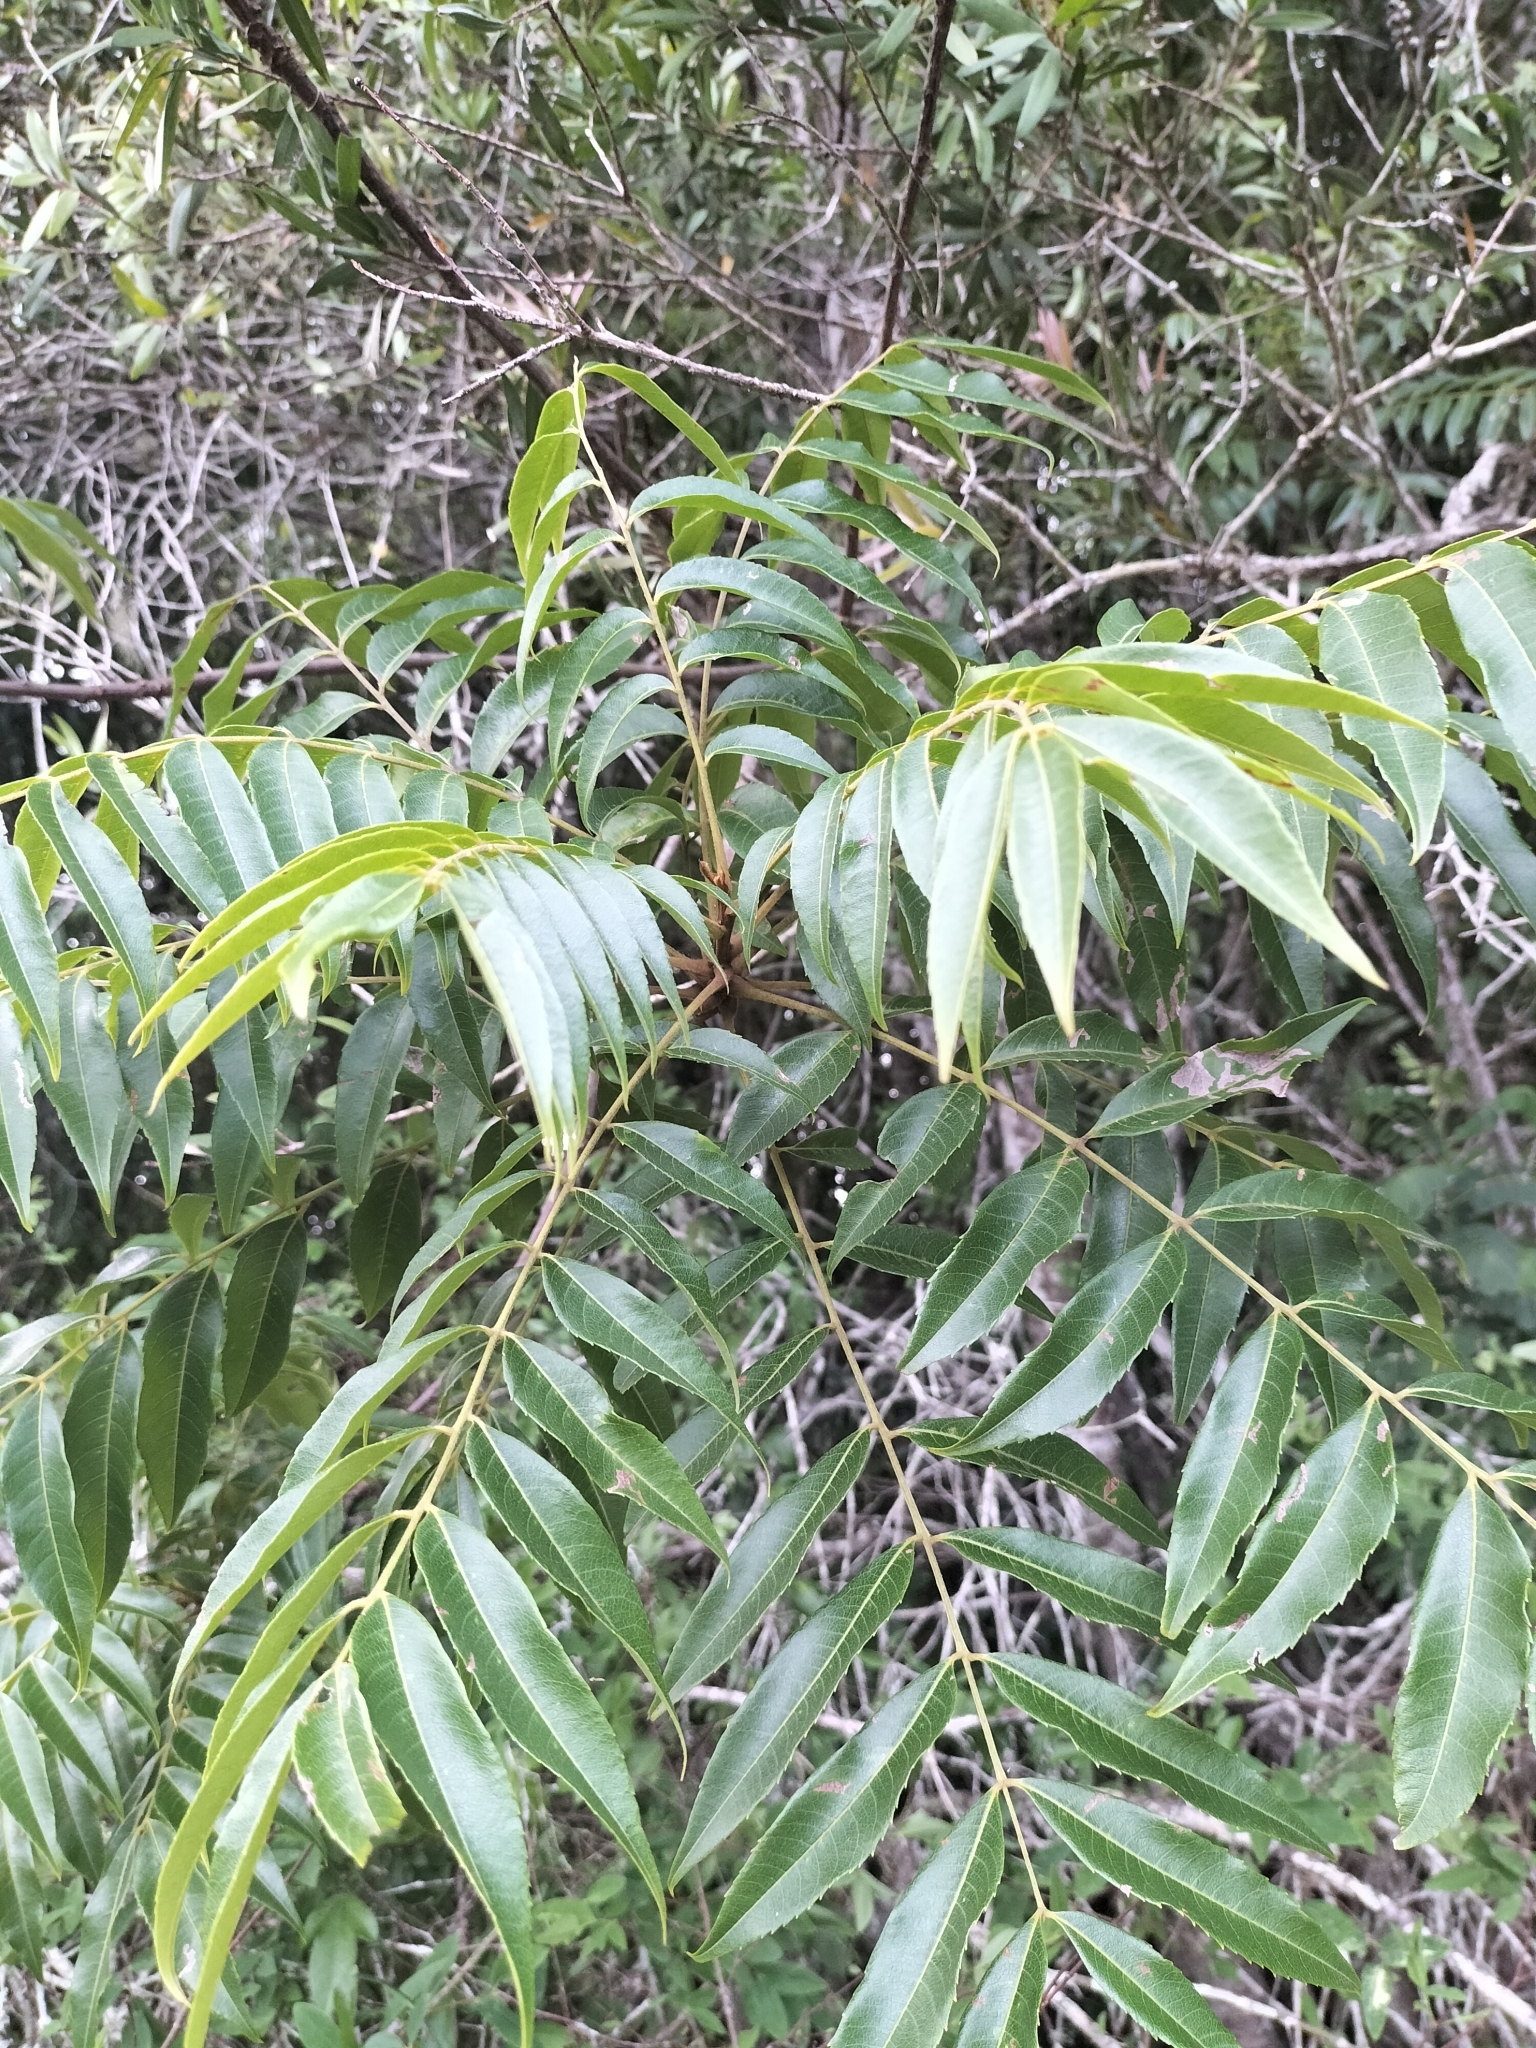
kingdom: Plantae
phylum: Tracheophyta
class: Magnoliopsida
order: Sapindales
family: Sapindaceae
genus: Jagera
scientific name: Jagera pseudorhus
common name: Fern-leaf-tamarind
